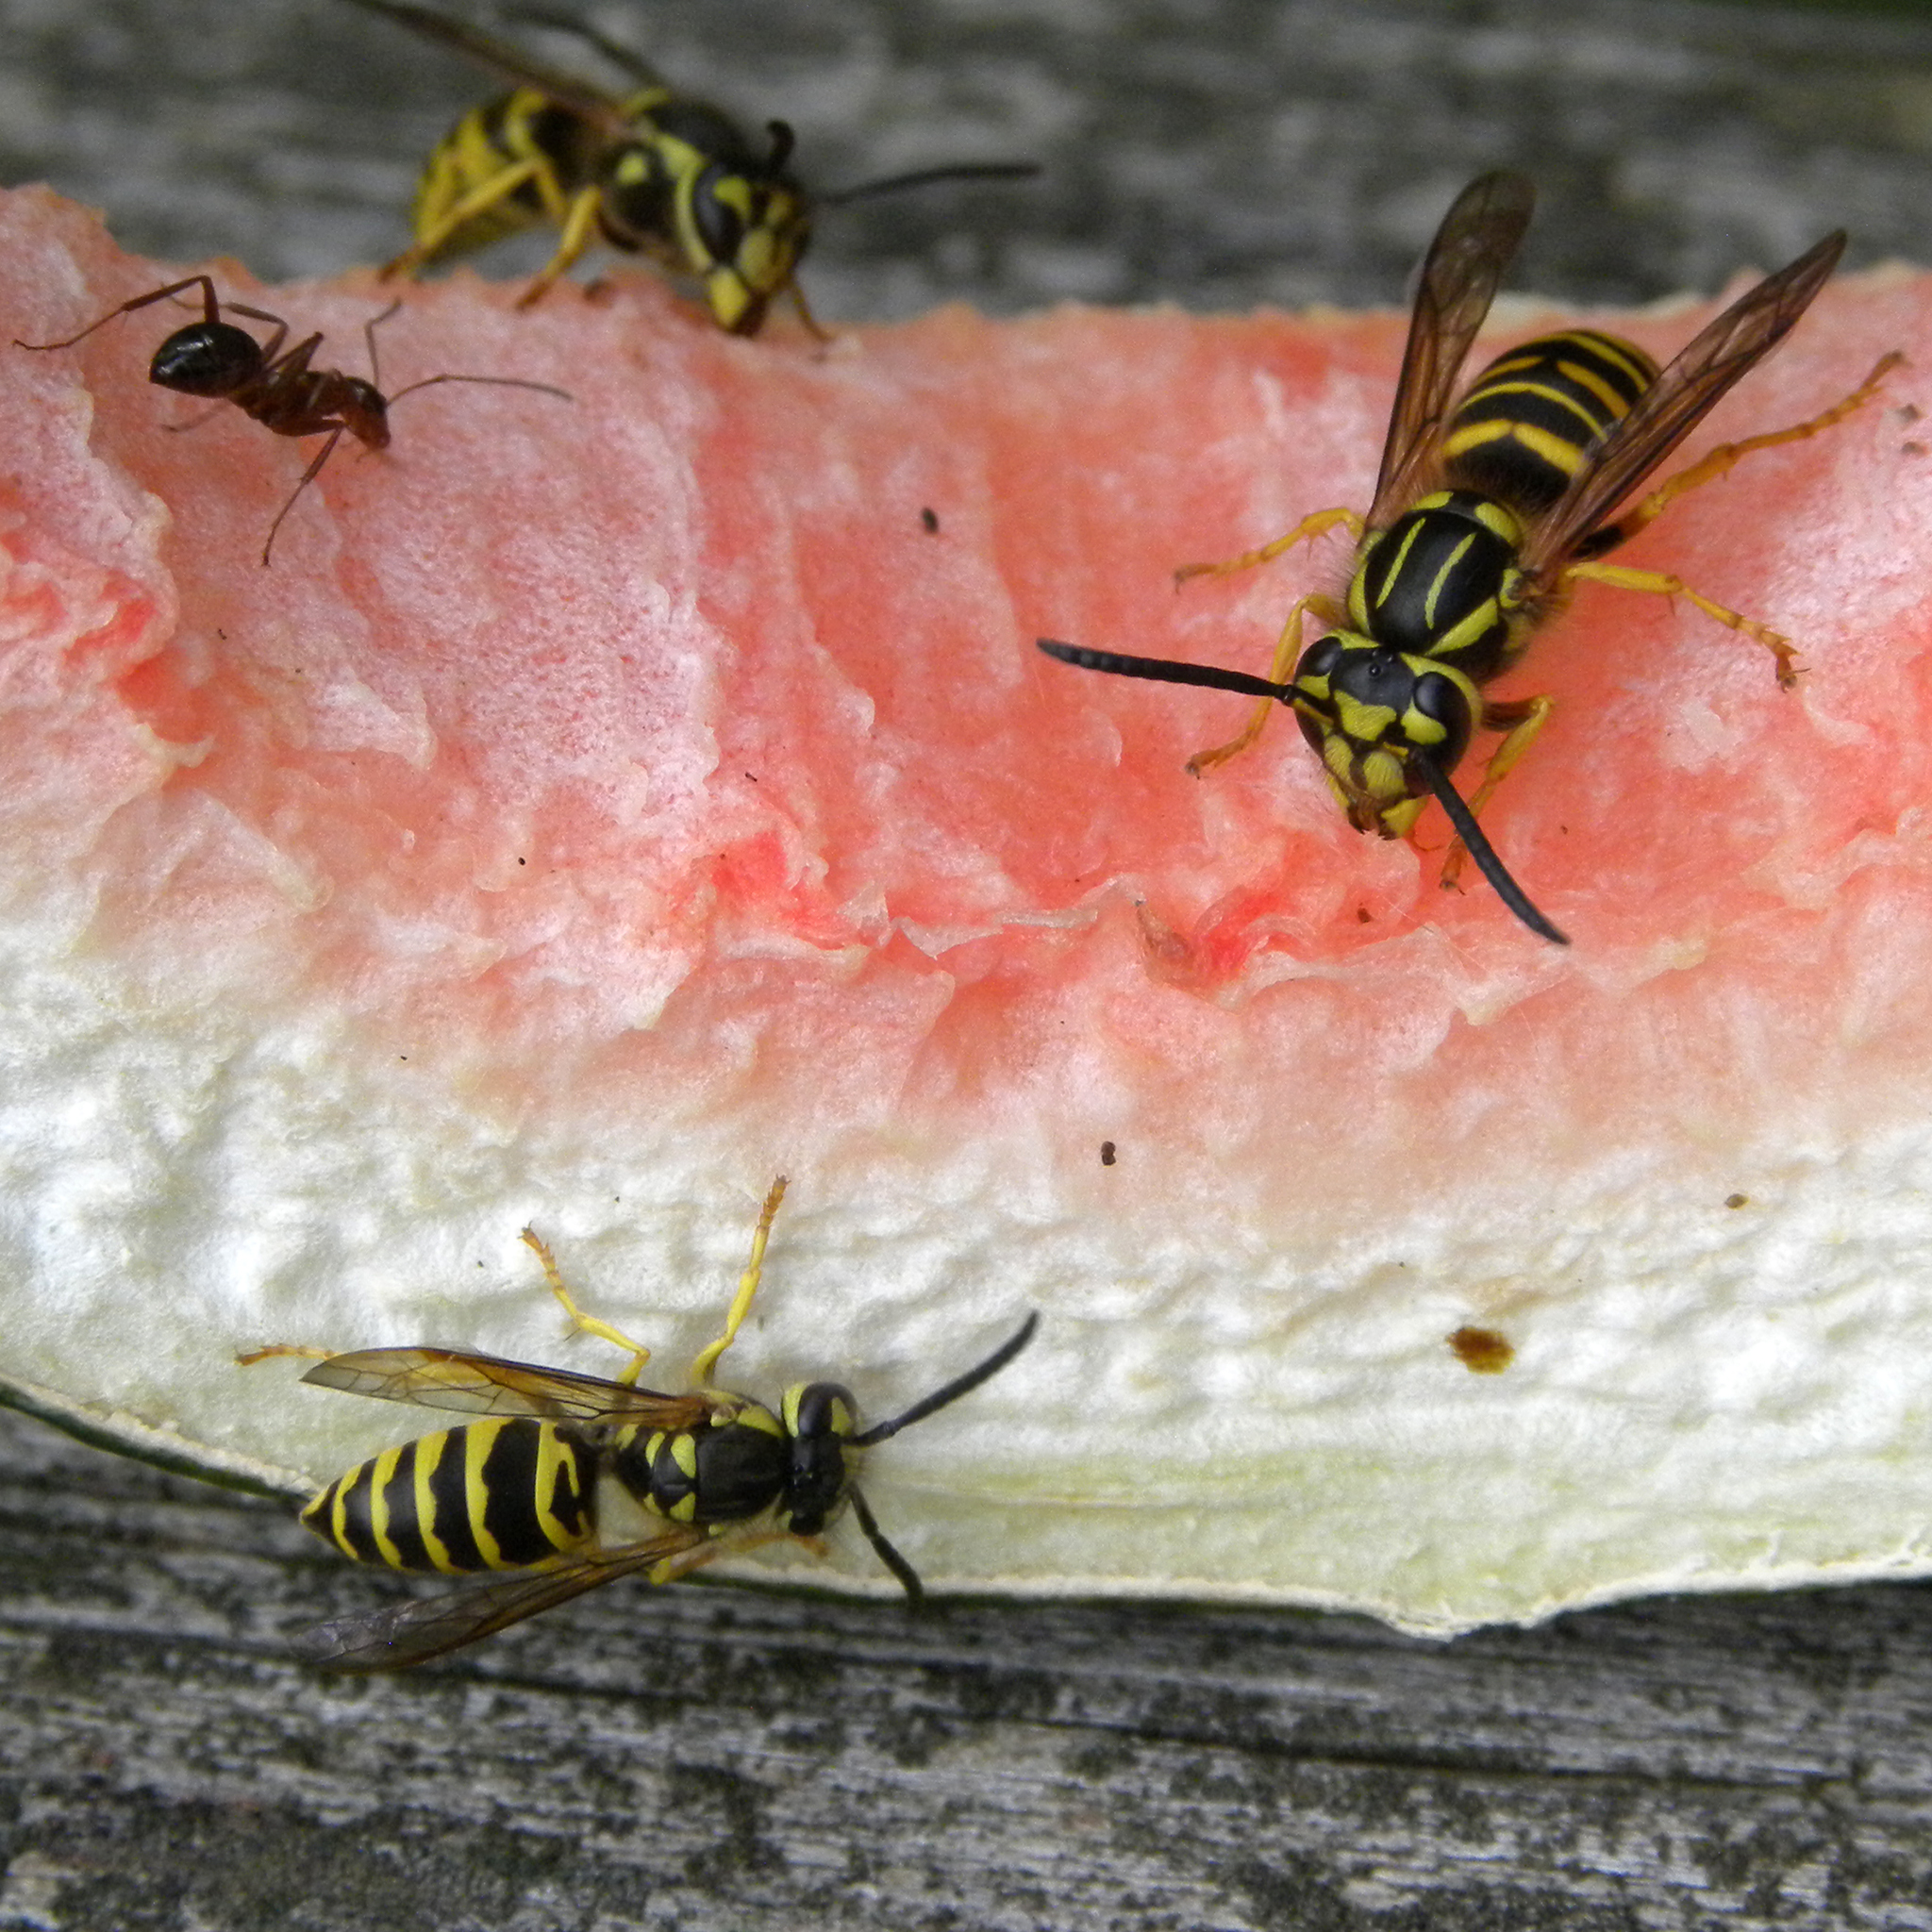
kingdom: Animalia
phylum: Arthropoda
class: Insecta
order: Hymenoptera
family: Vespidae
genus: Vespula
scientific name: Vespula squamosa
